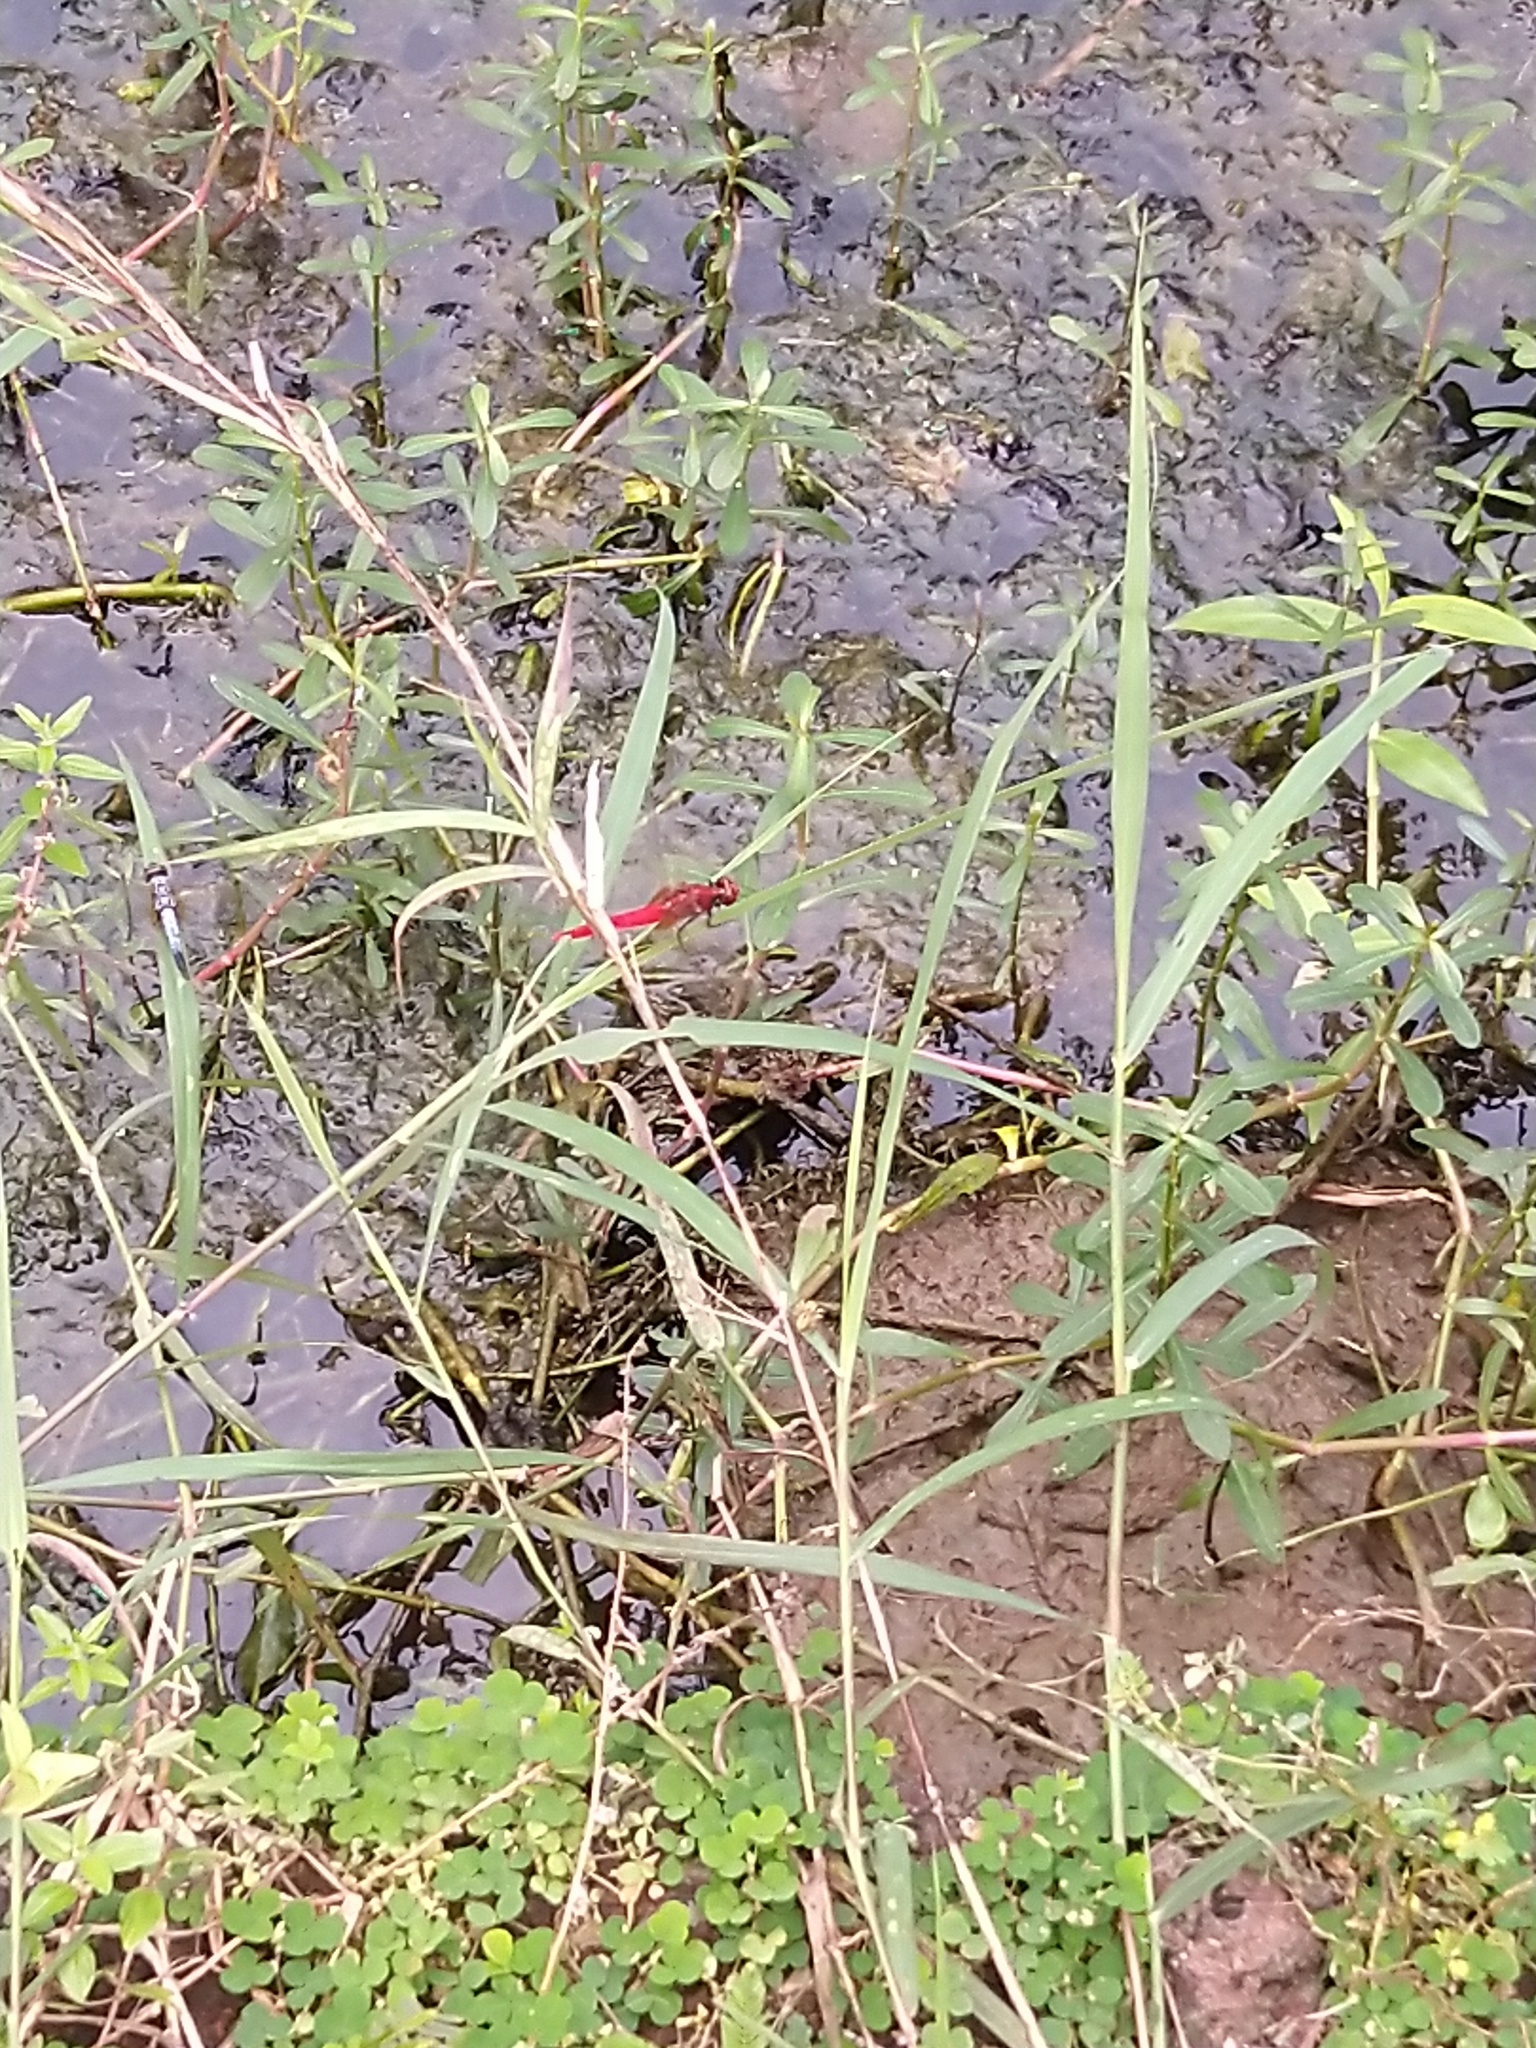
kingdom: Animalia
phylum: Arthropoda
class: Insecta
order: Odonata
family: Libellulidae
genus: Rhodothemis
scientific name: Rhodothemis rufa
